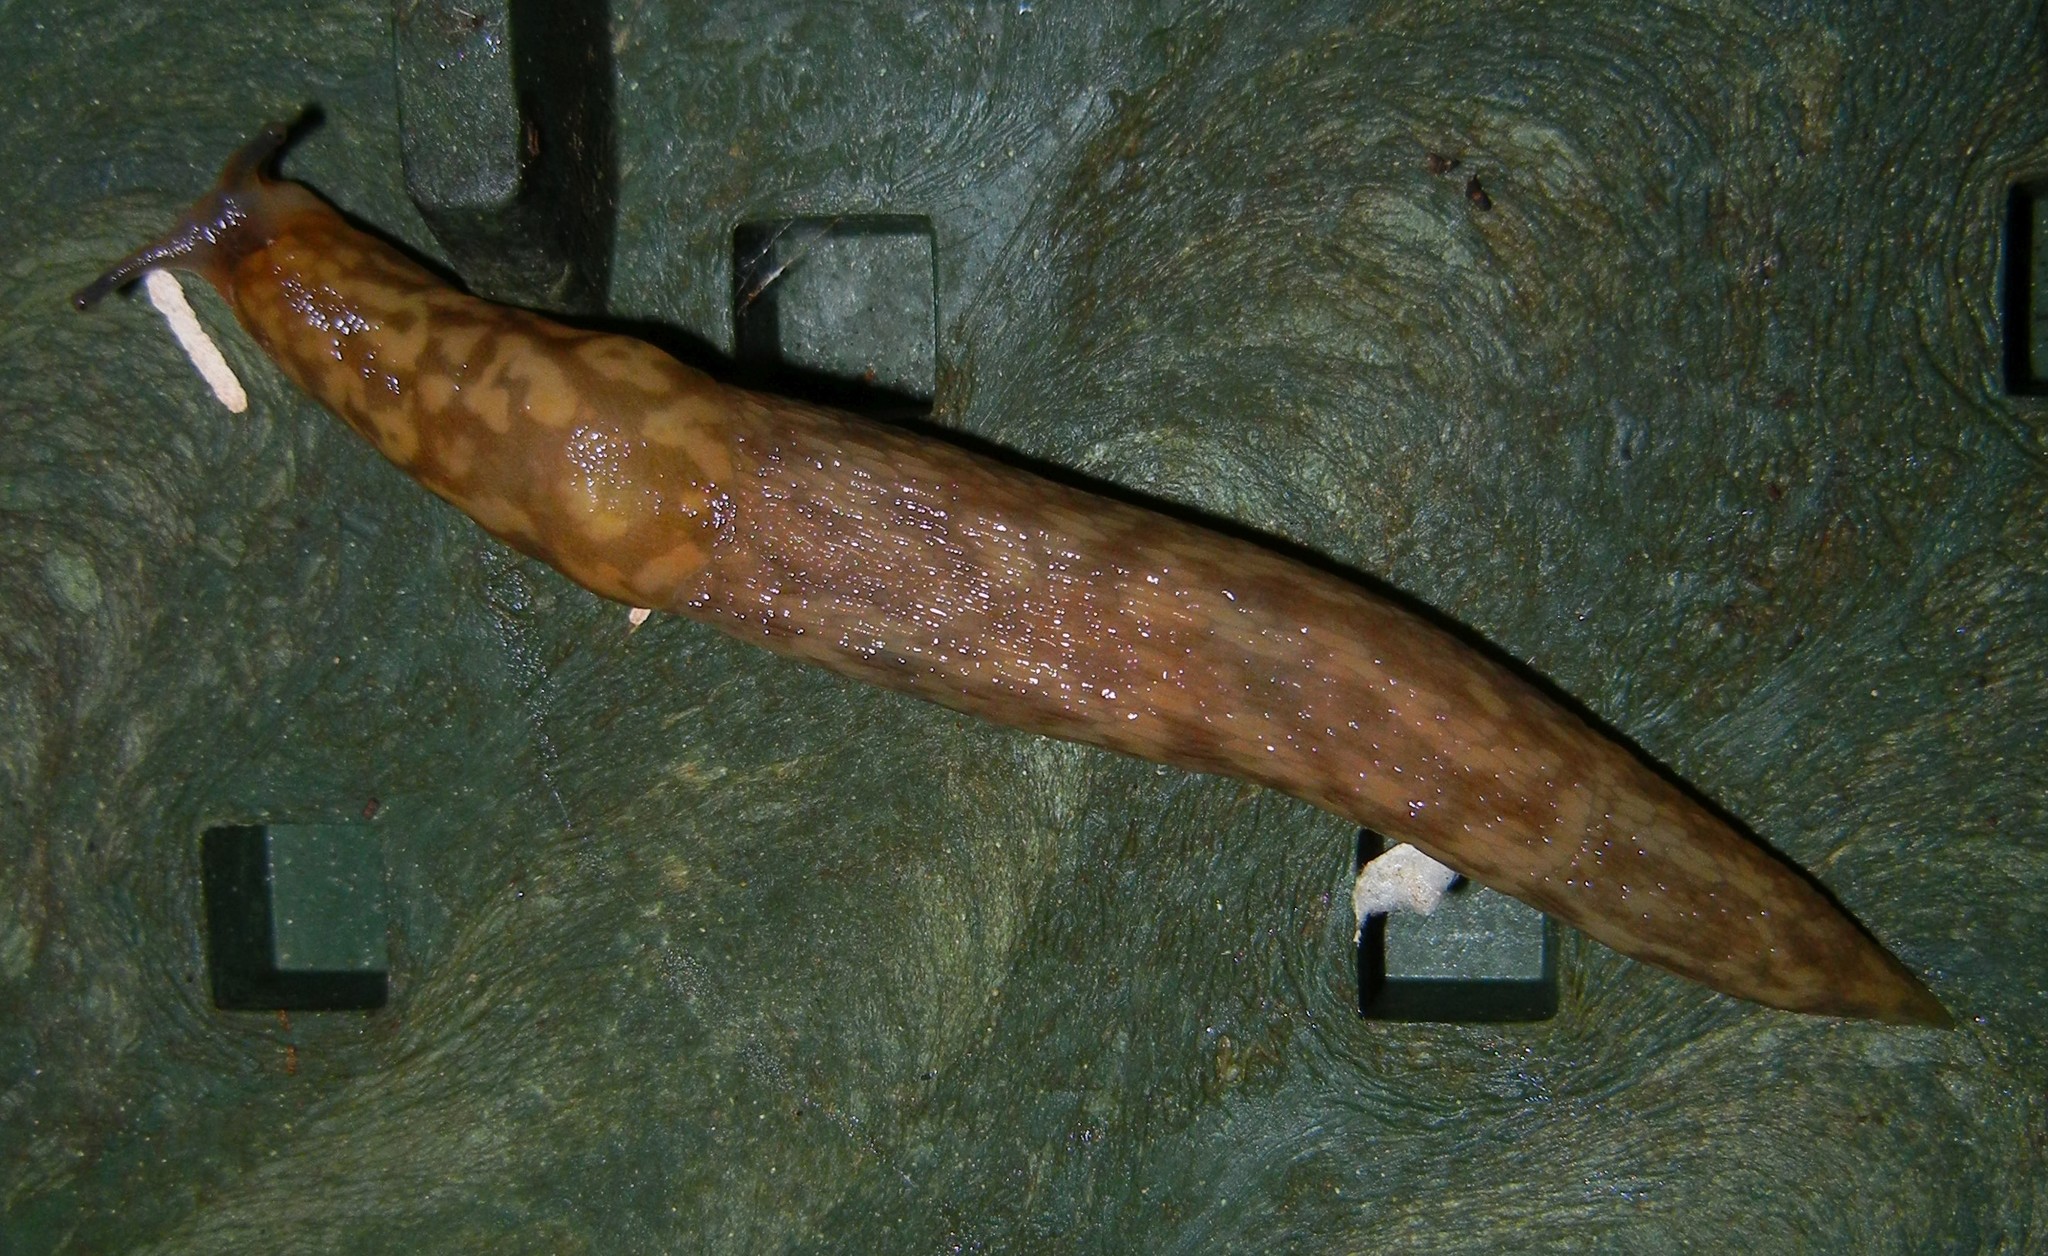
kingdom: Animalia
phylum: Mollusca
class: Gastropoda
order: Stylommatophora
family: Limacidae
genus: Limacus
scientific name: Limacus maculatus
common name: Irish yellow slug
